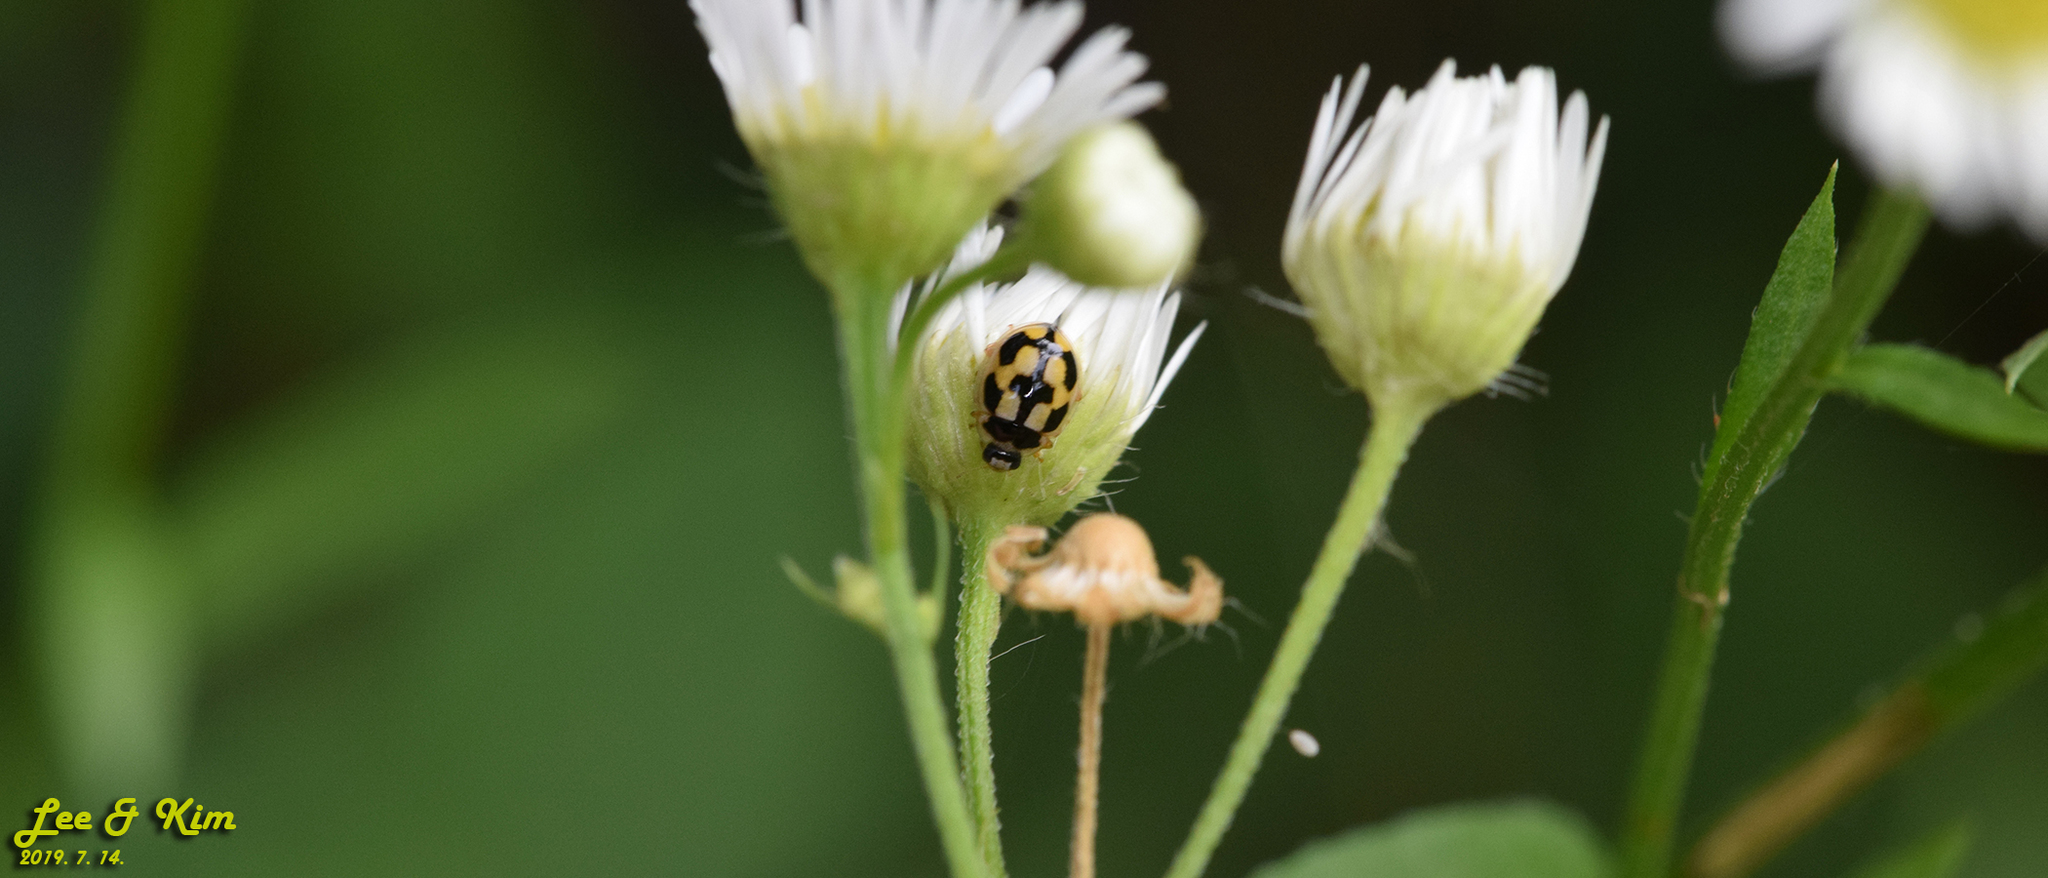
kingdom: Animalia
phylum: Arthropoda
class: Insecta
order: Coleoptera
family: Coccinellidae
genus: Propylea
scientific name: Propylea japonica
